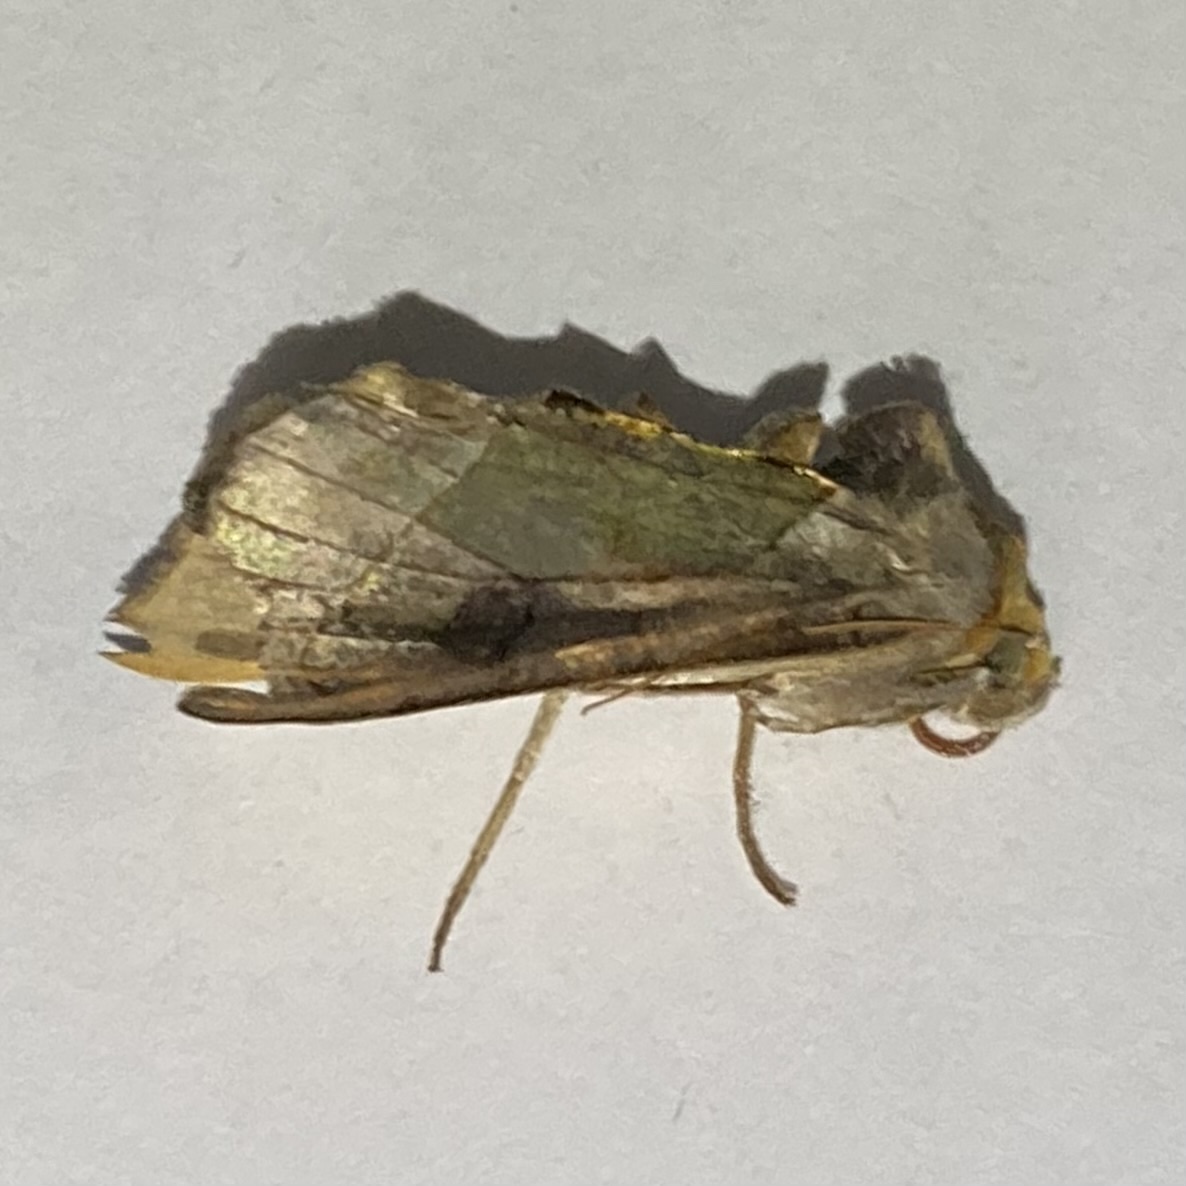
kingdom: Animalia
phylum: Arthropoda
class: Insecta
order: Lepidoptera
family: Noctuidae
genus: Diachrysia
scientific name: Diachrysia balluca
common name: Green-patched looper moth
